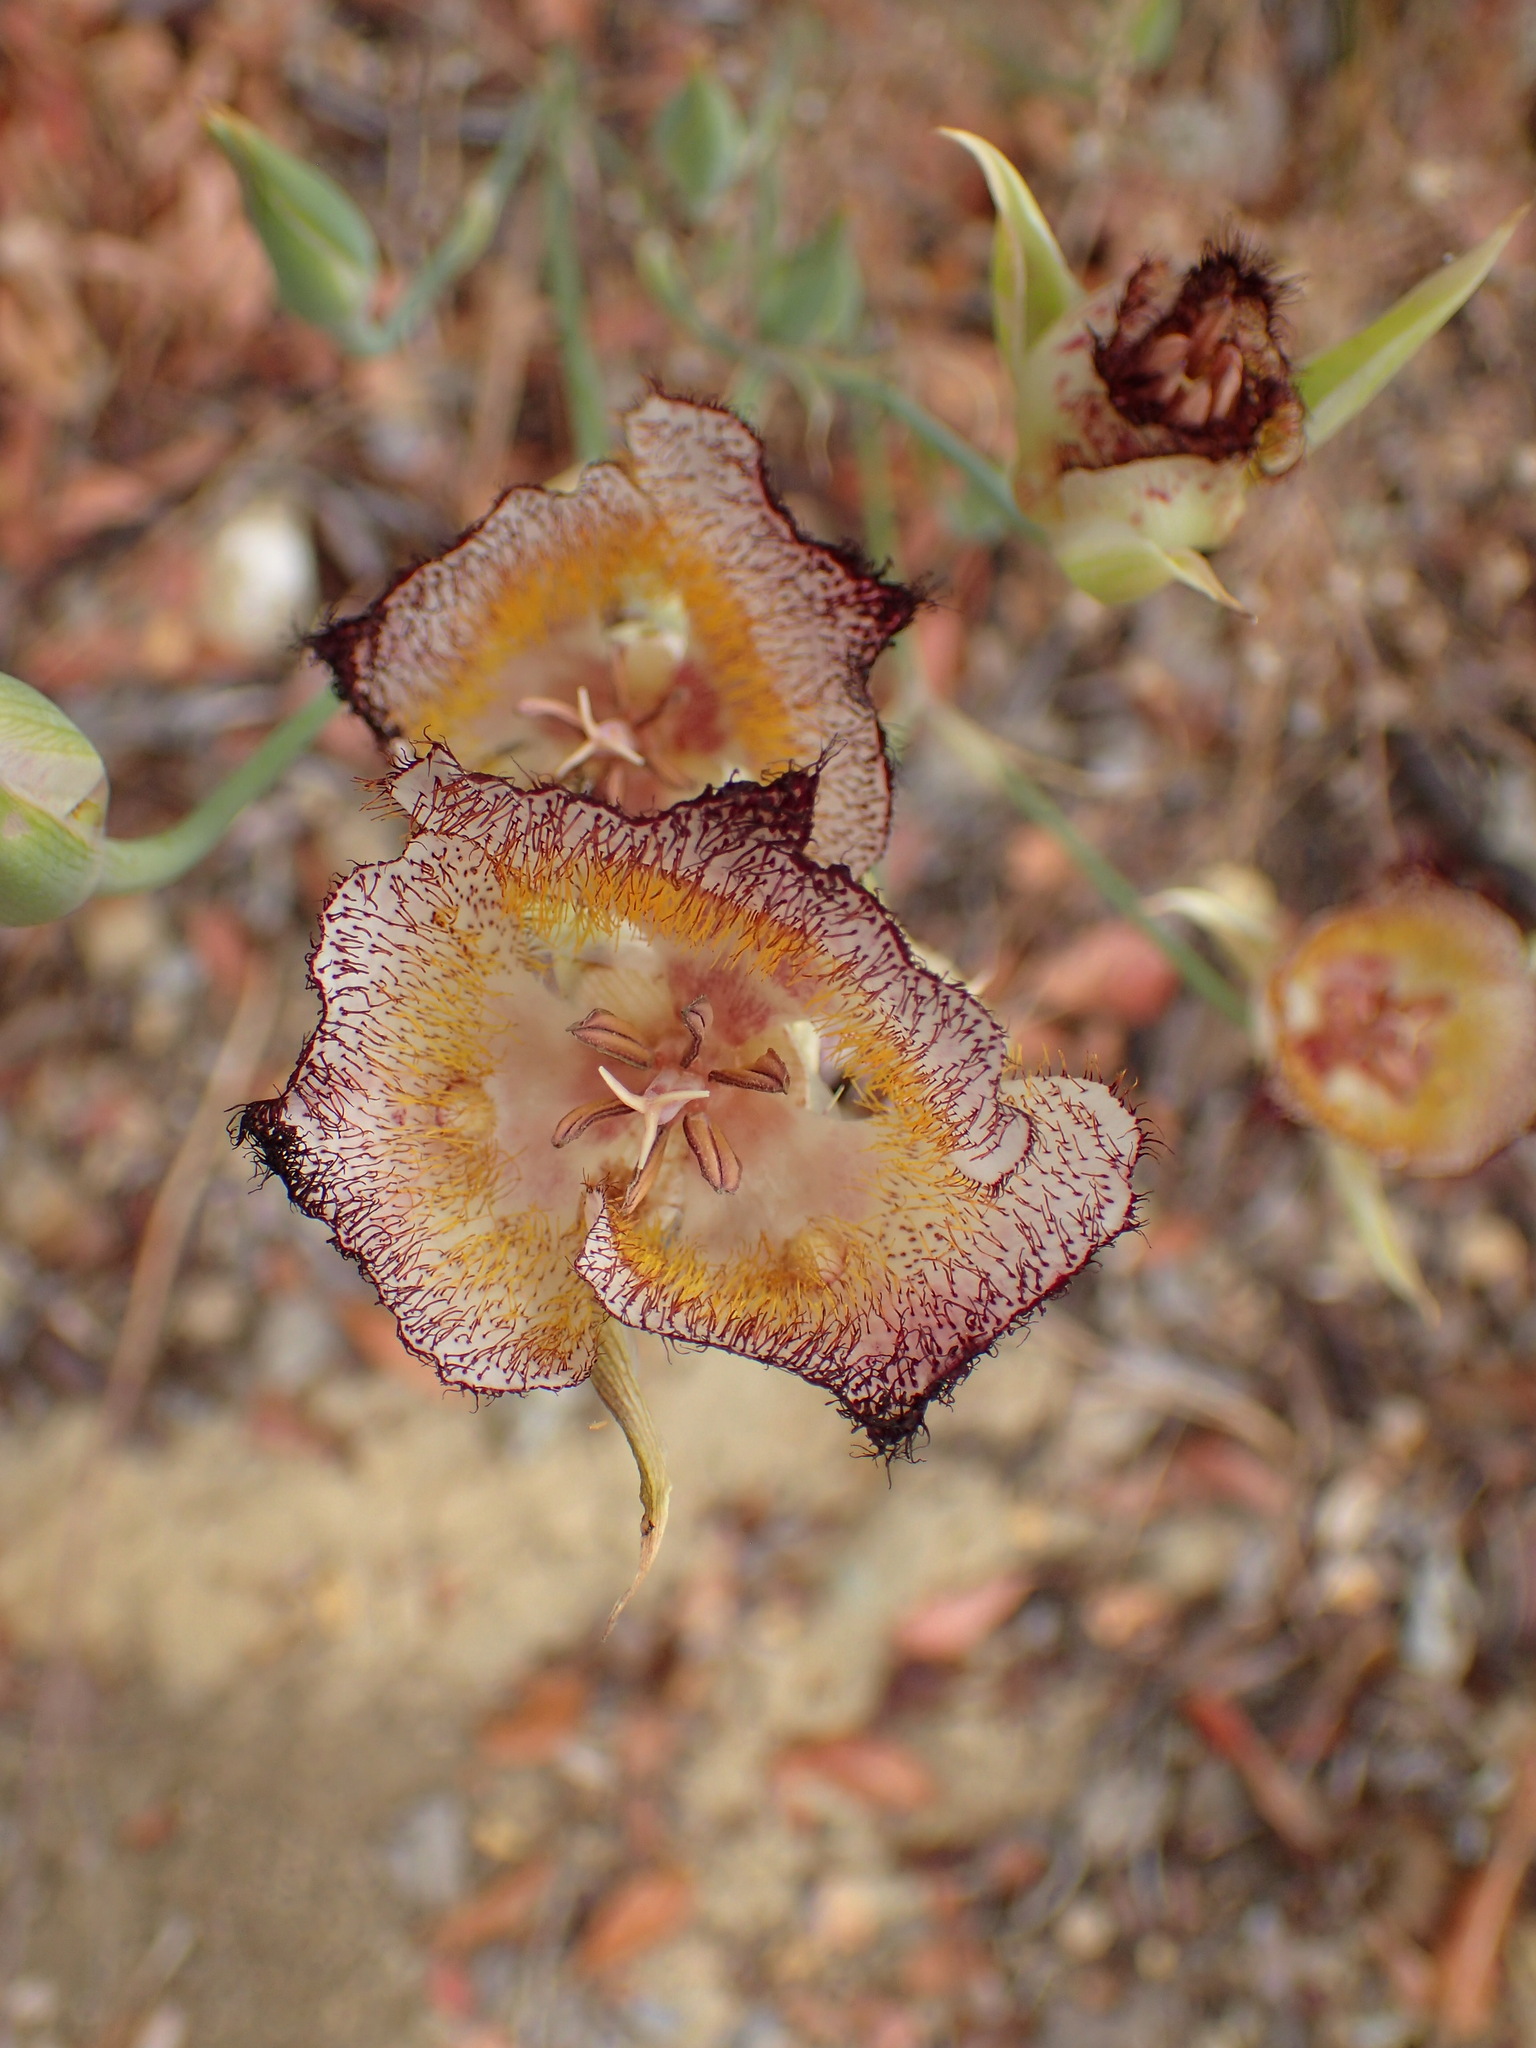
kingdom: Plantae
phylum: Tracheophyta
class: Liliopsida
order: Liliales
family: Liliaceae
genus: Calochortus
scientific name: Calochortus fimbriatus
